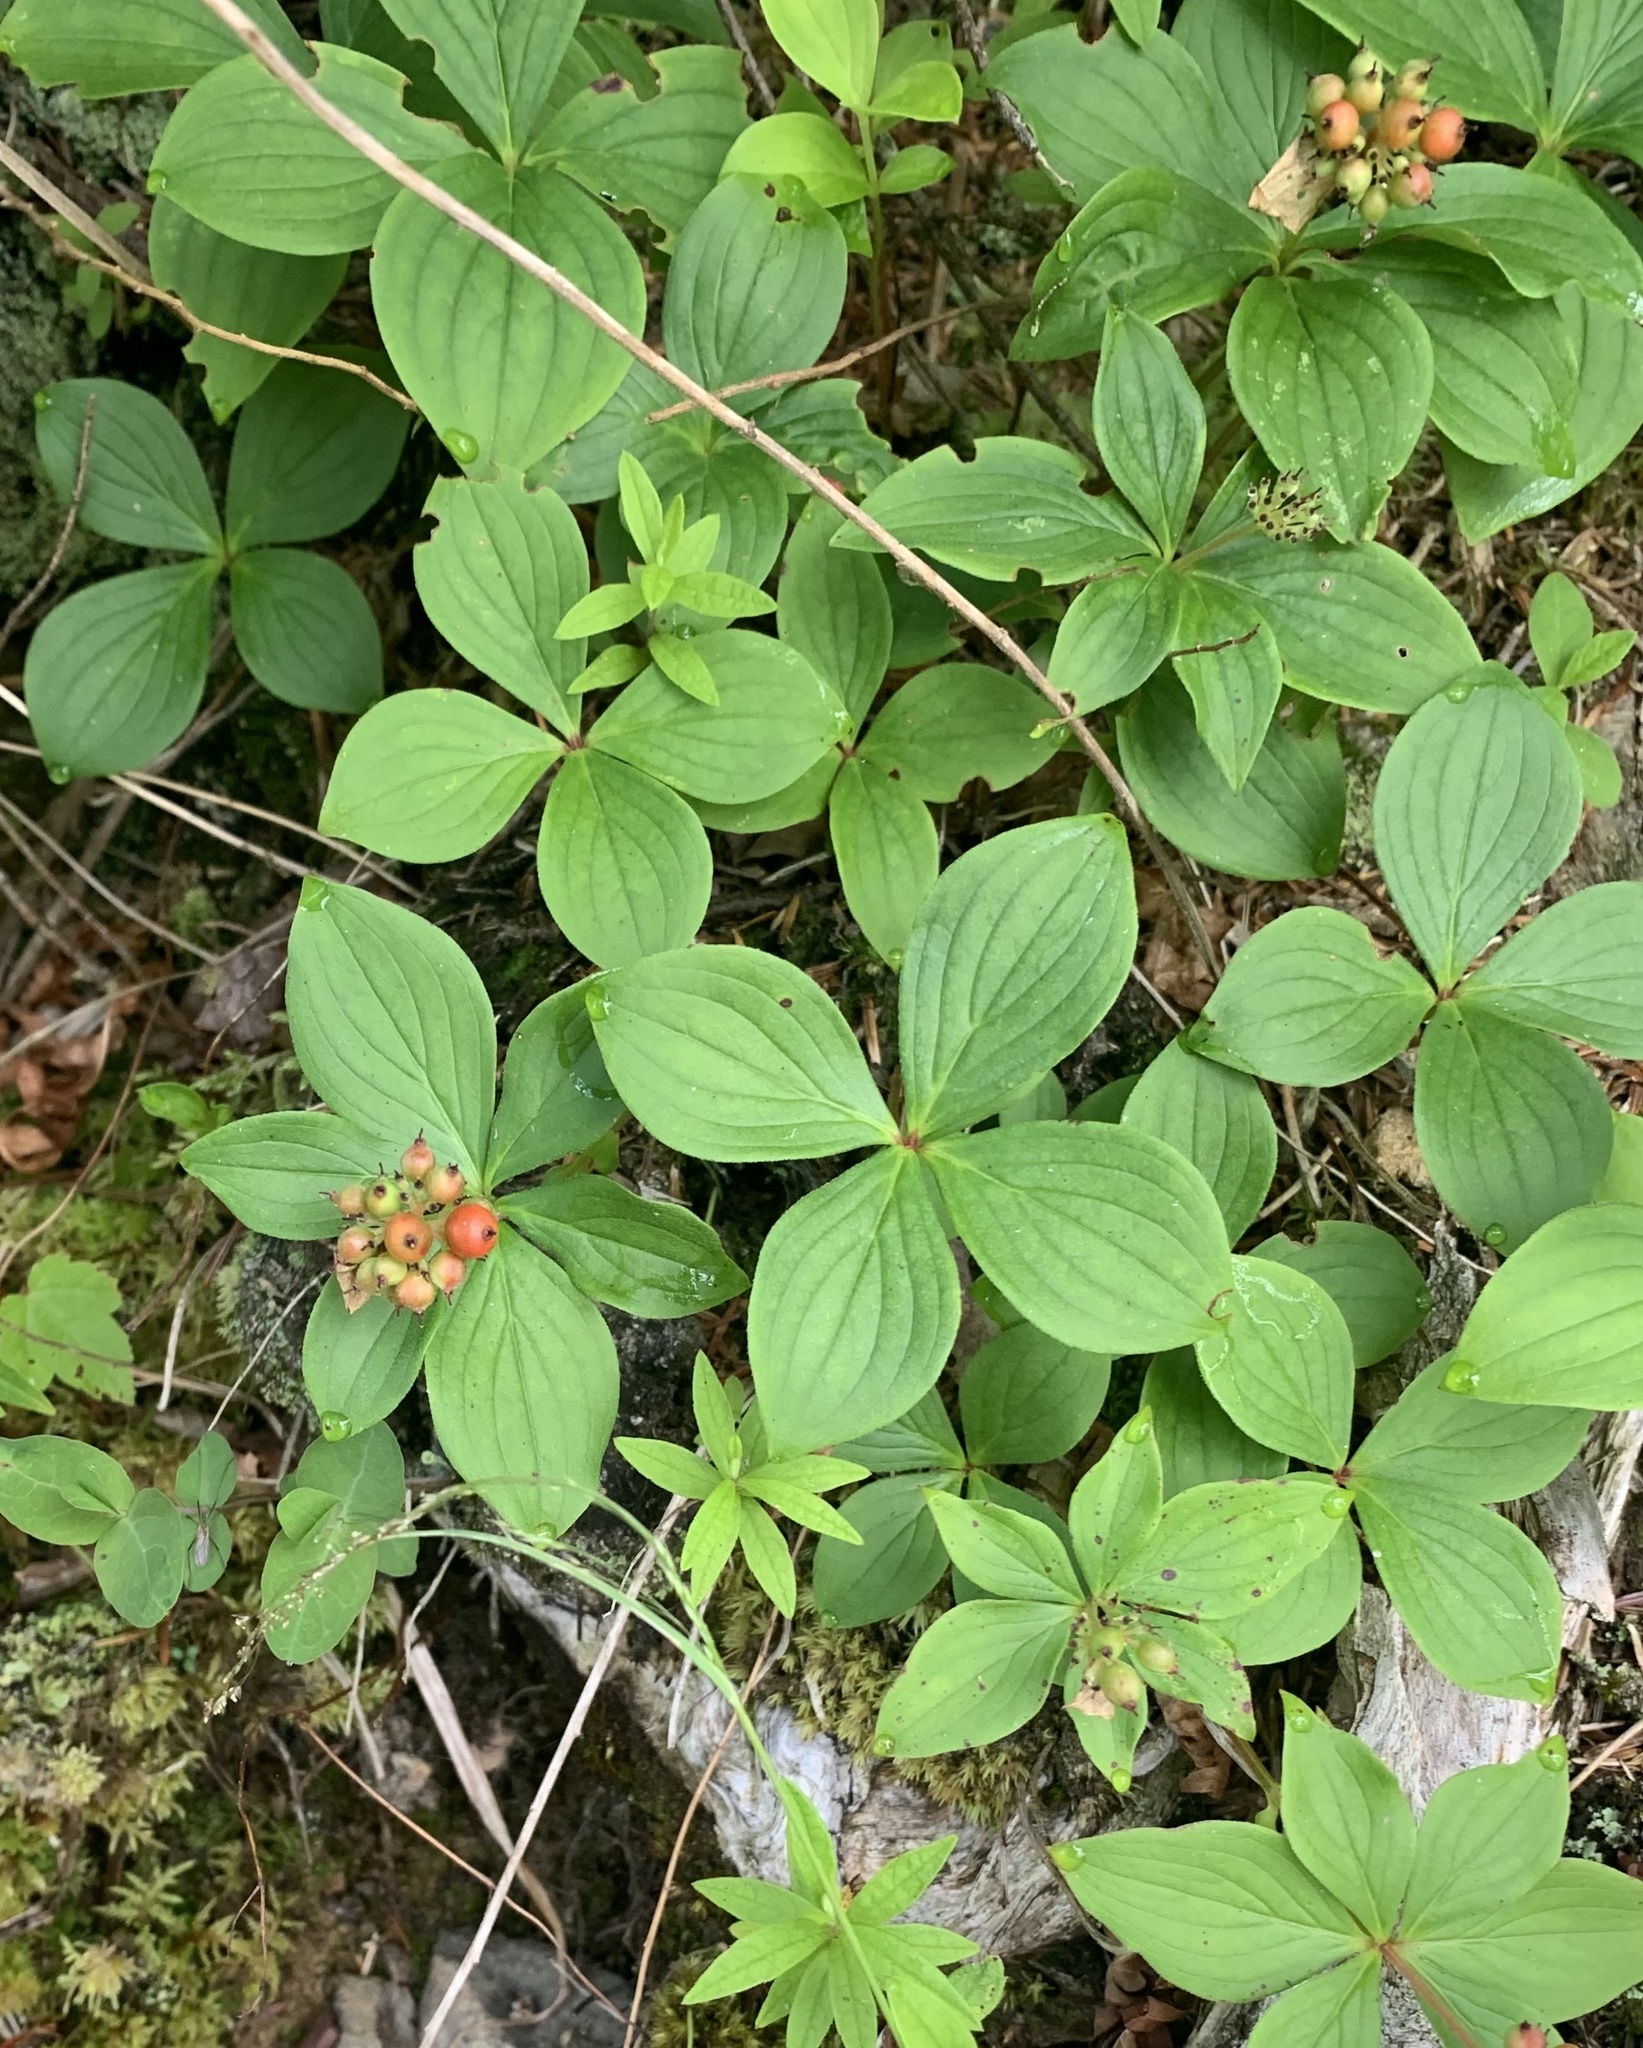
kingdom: Plantae
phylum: Tracheophyta
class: Magnoliopsida
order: Cornales
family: Cornaceae
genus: Cornus
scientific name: Cornus canadensis
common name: Creeping dogwood
